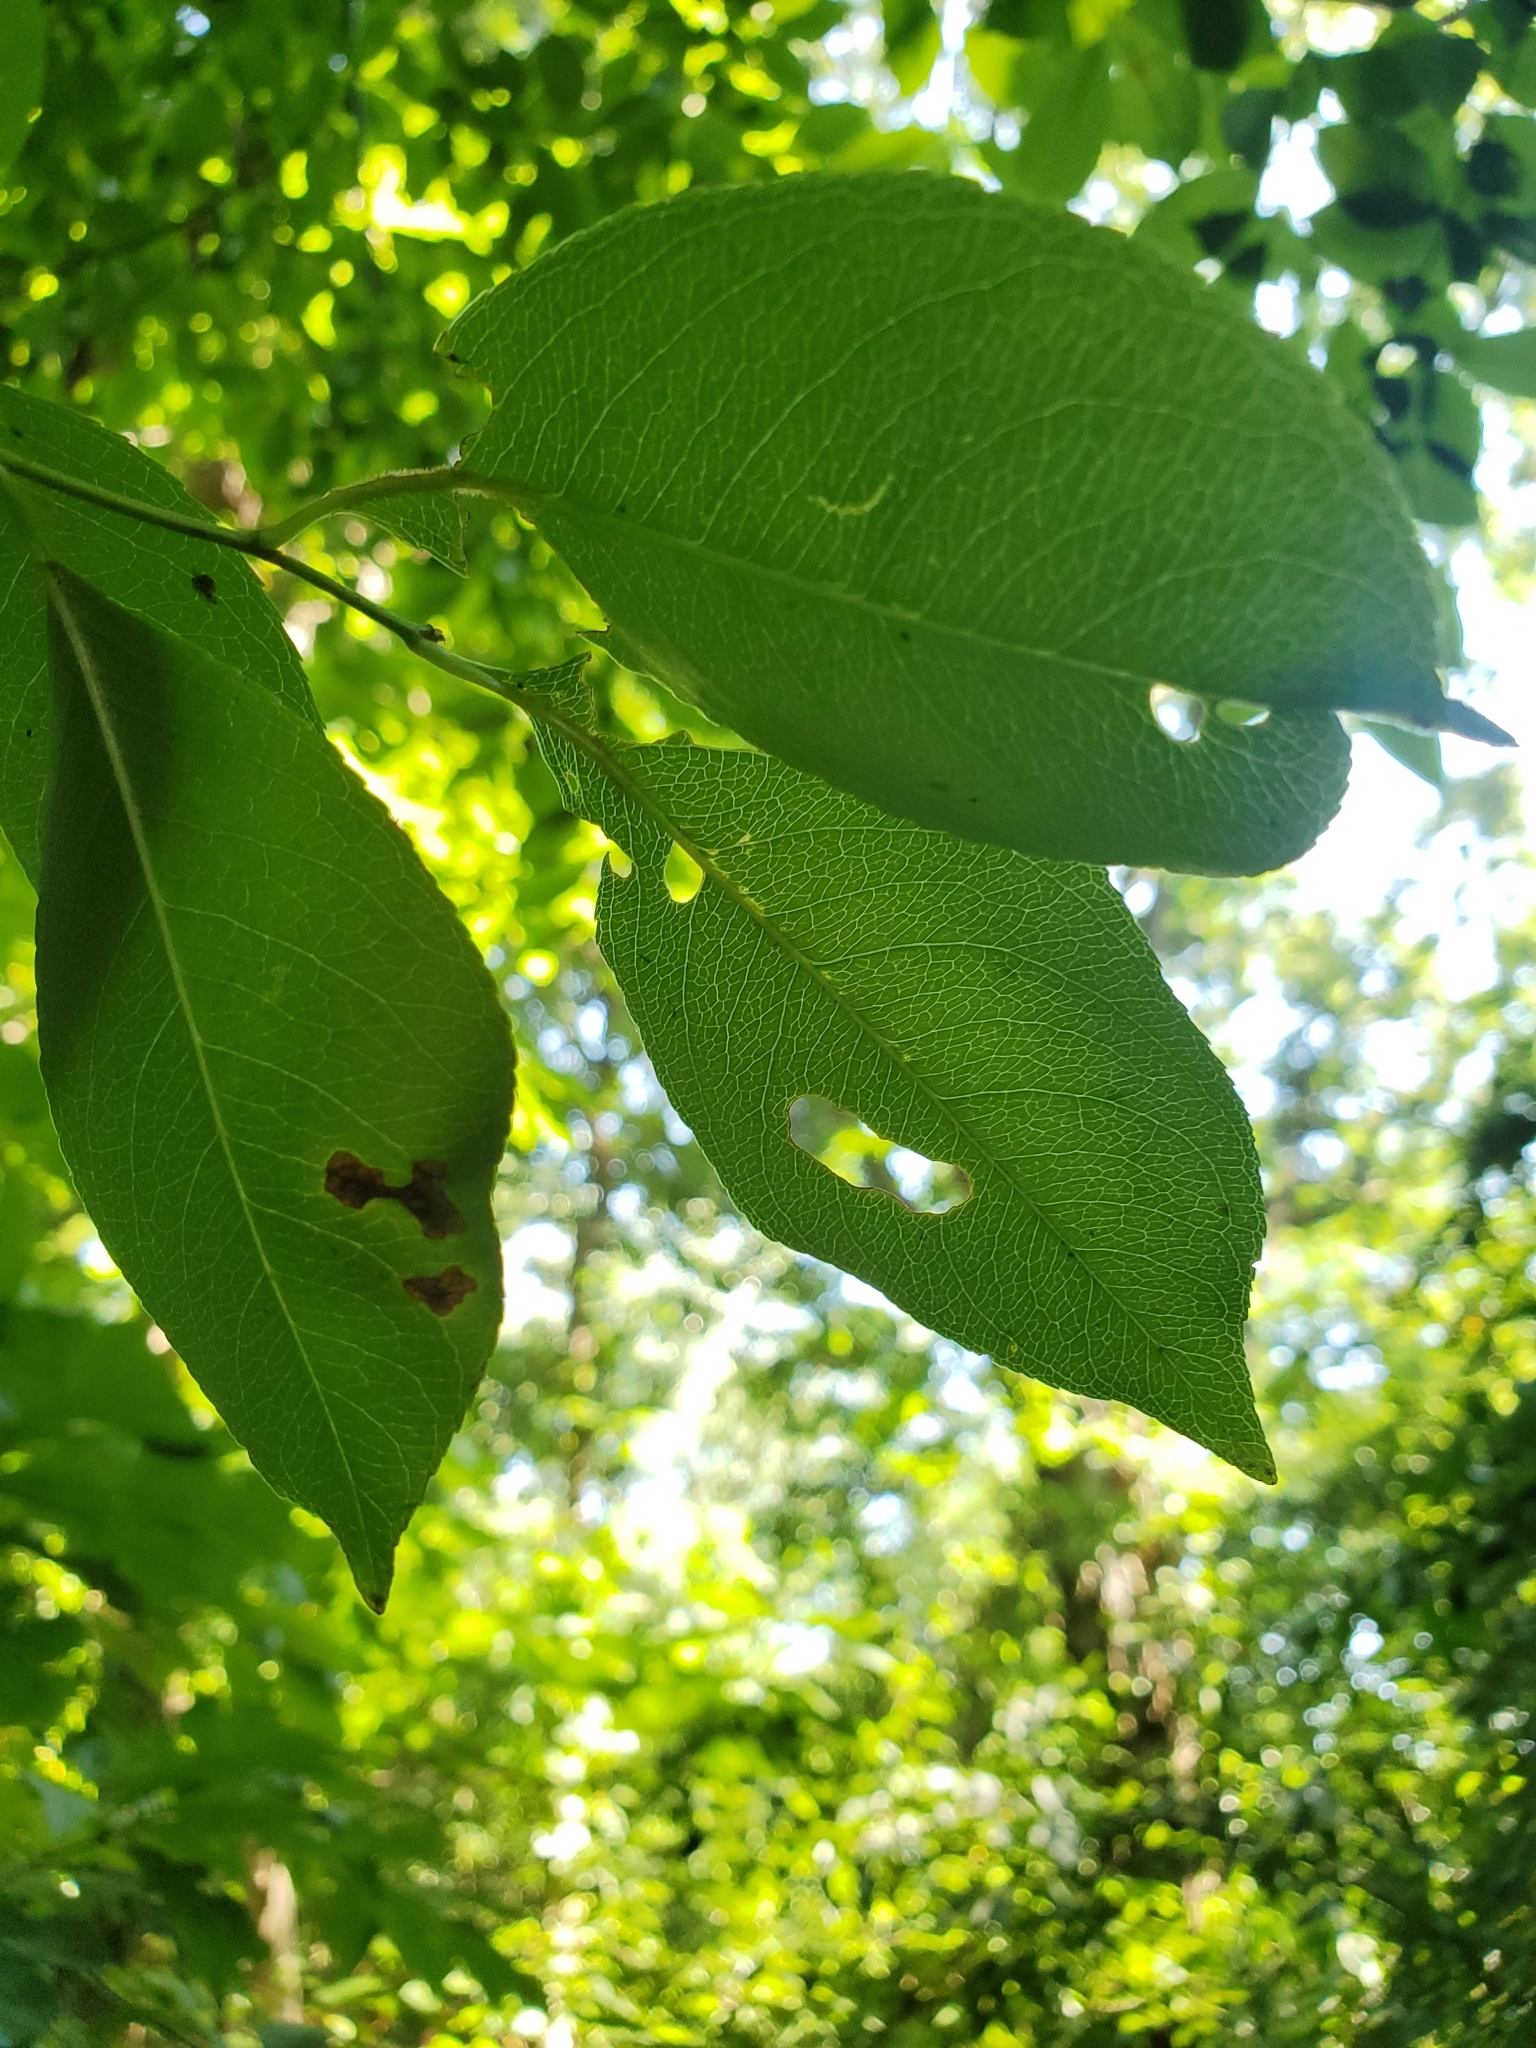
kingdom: Plantae
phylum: Tracheophyta
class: Magnoliopsida
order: Rosales
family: Rosaceae
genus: Prunus
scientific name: Prunus serotina
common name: Black cherry
